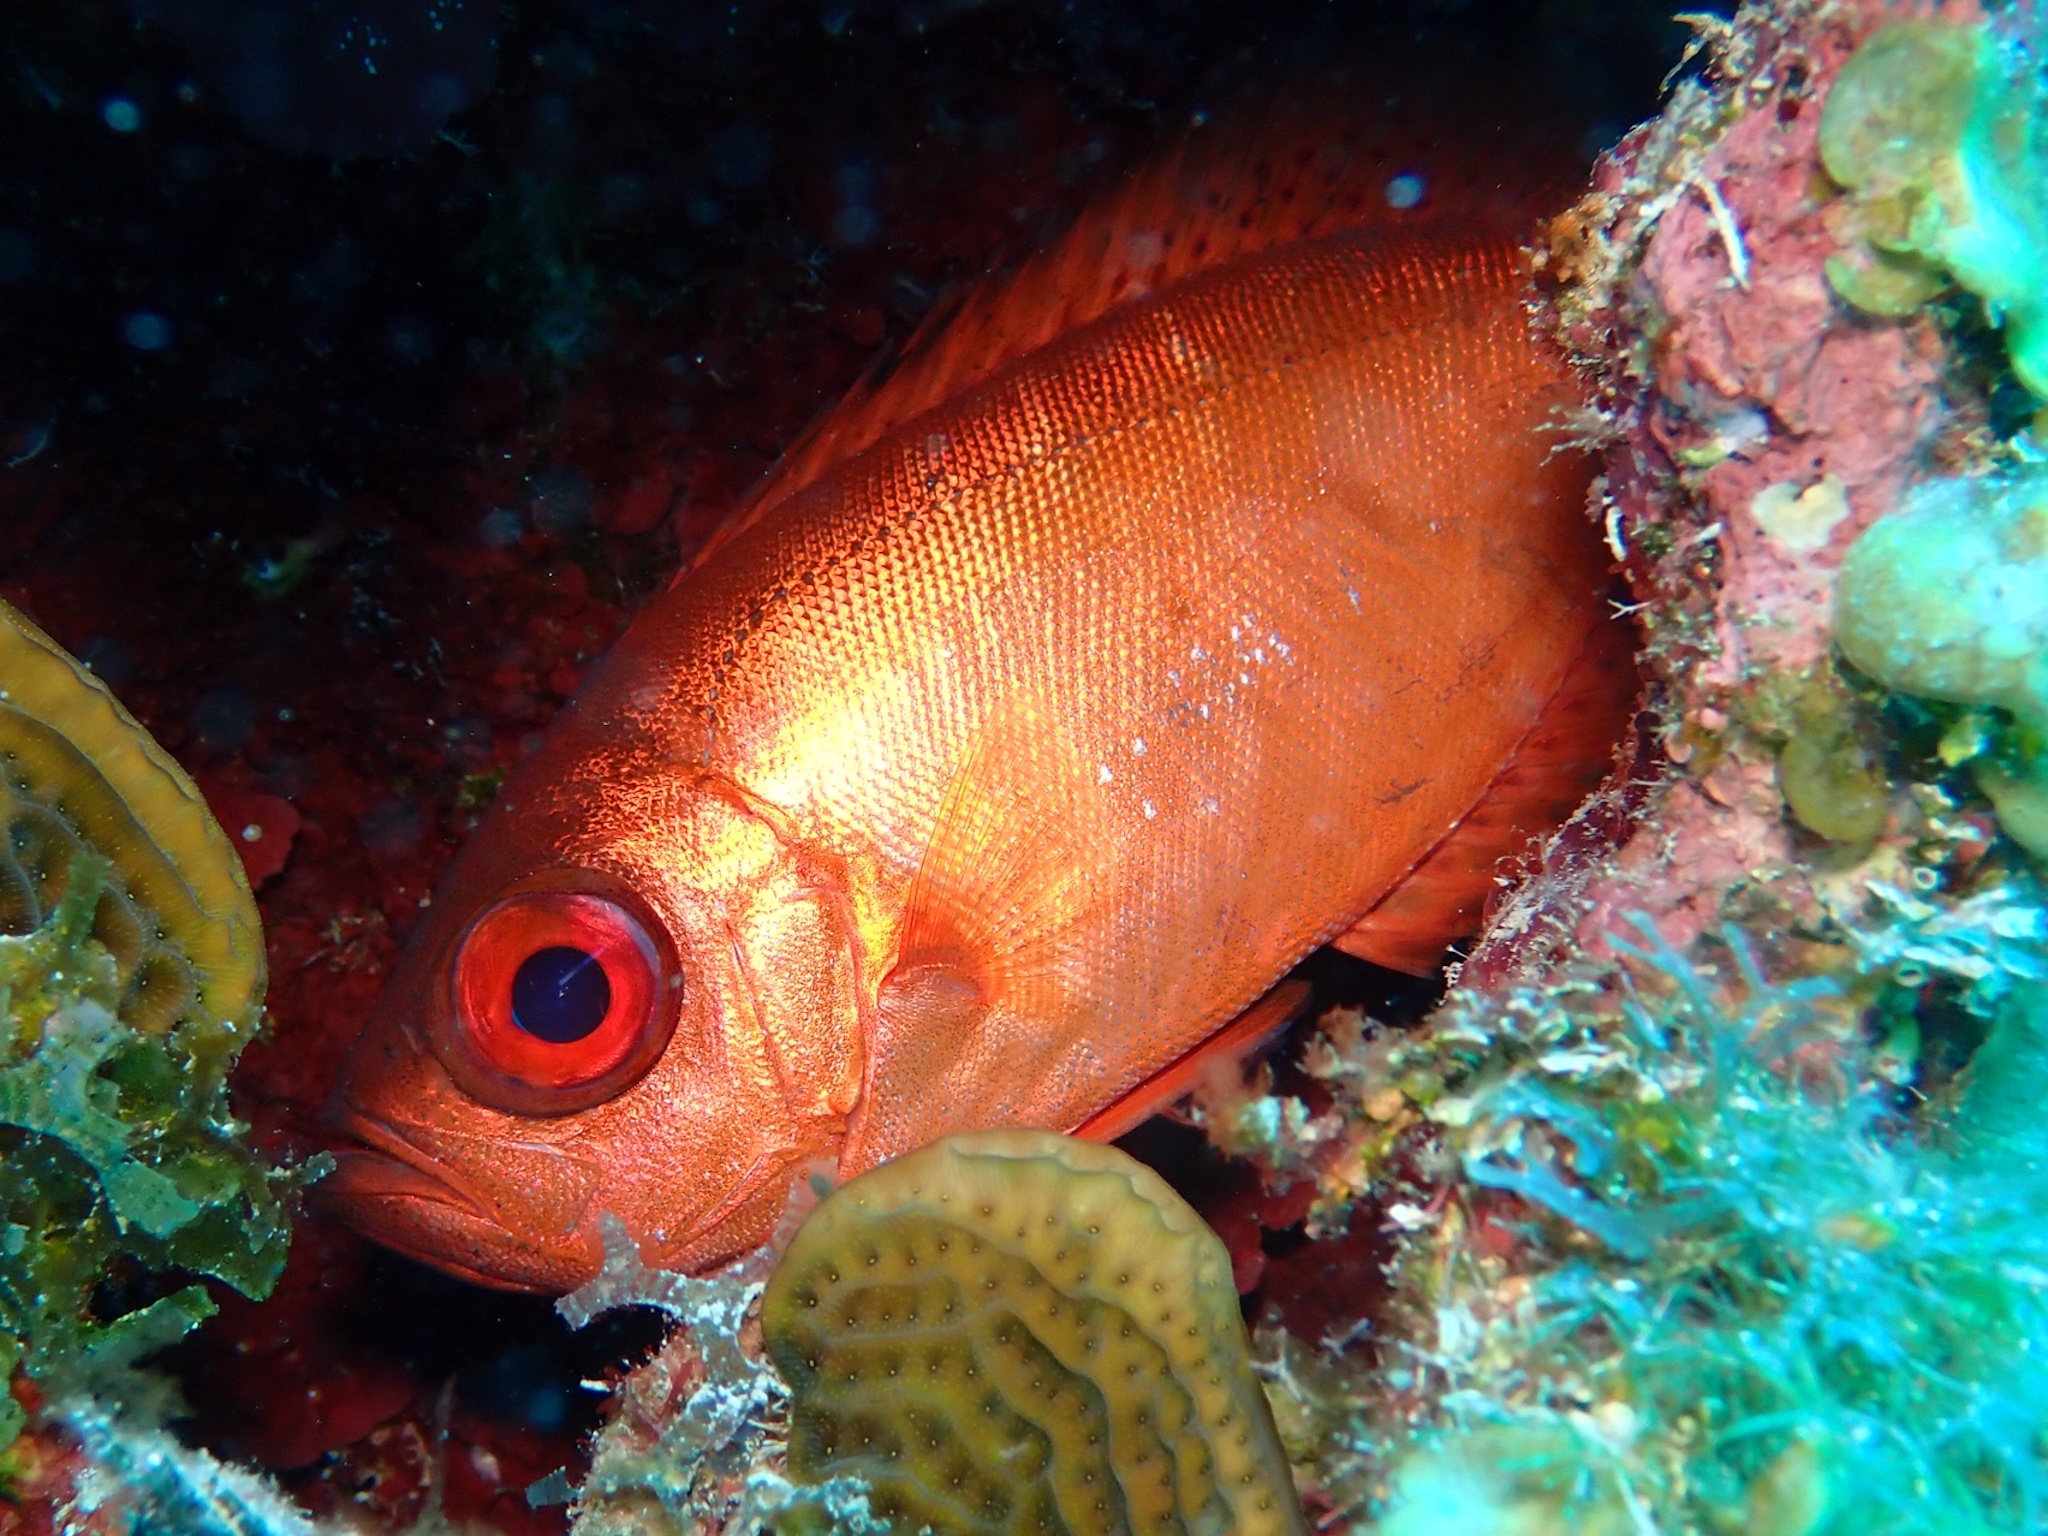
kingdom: Animalia
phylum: Chordata
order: Perciformes
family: Priacanthidae
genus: Heteropriacanthus
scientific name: Heteropriacanthus cruentatus
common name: Glasseye
